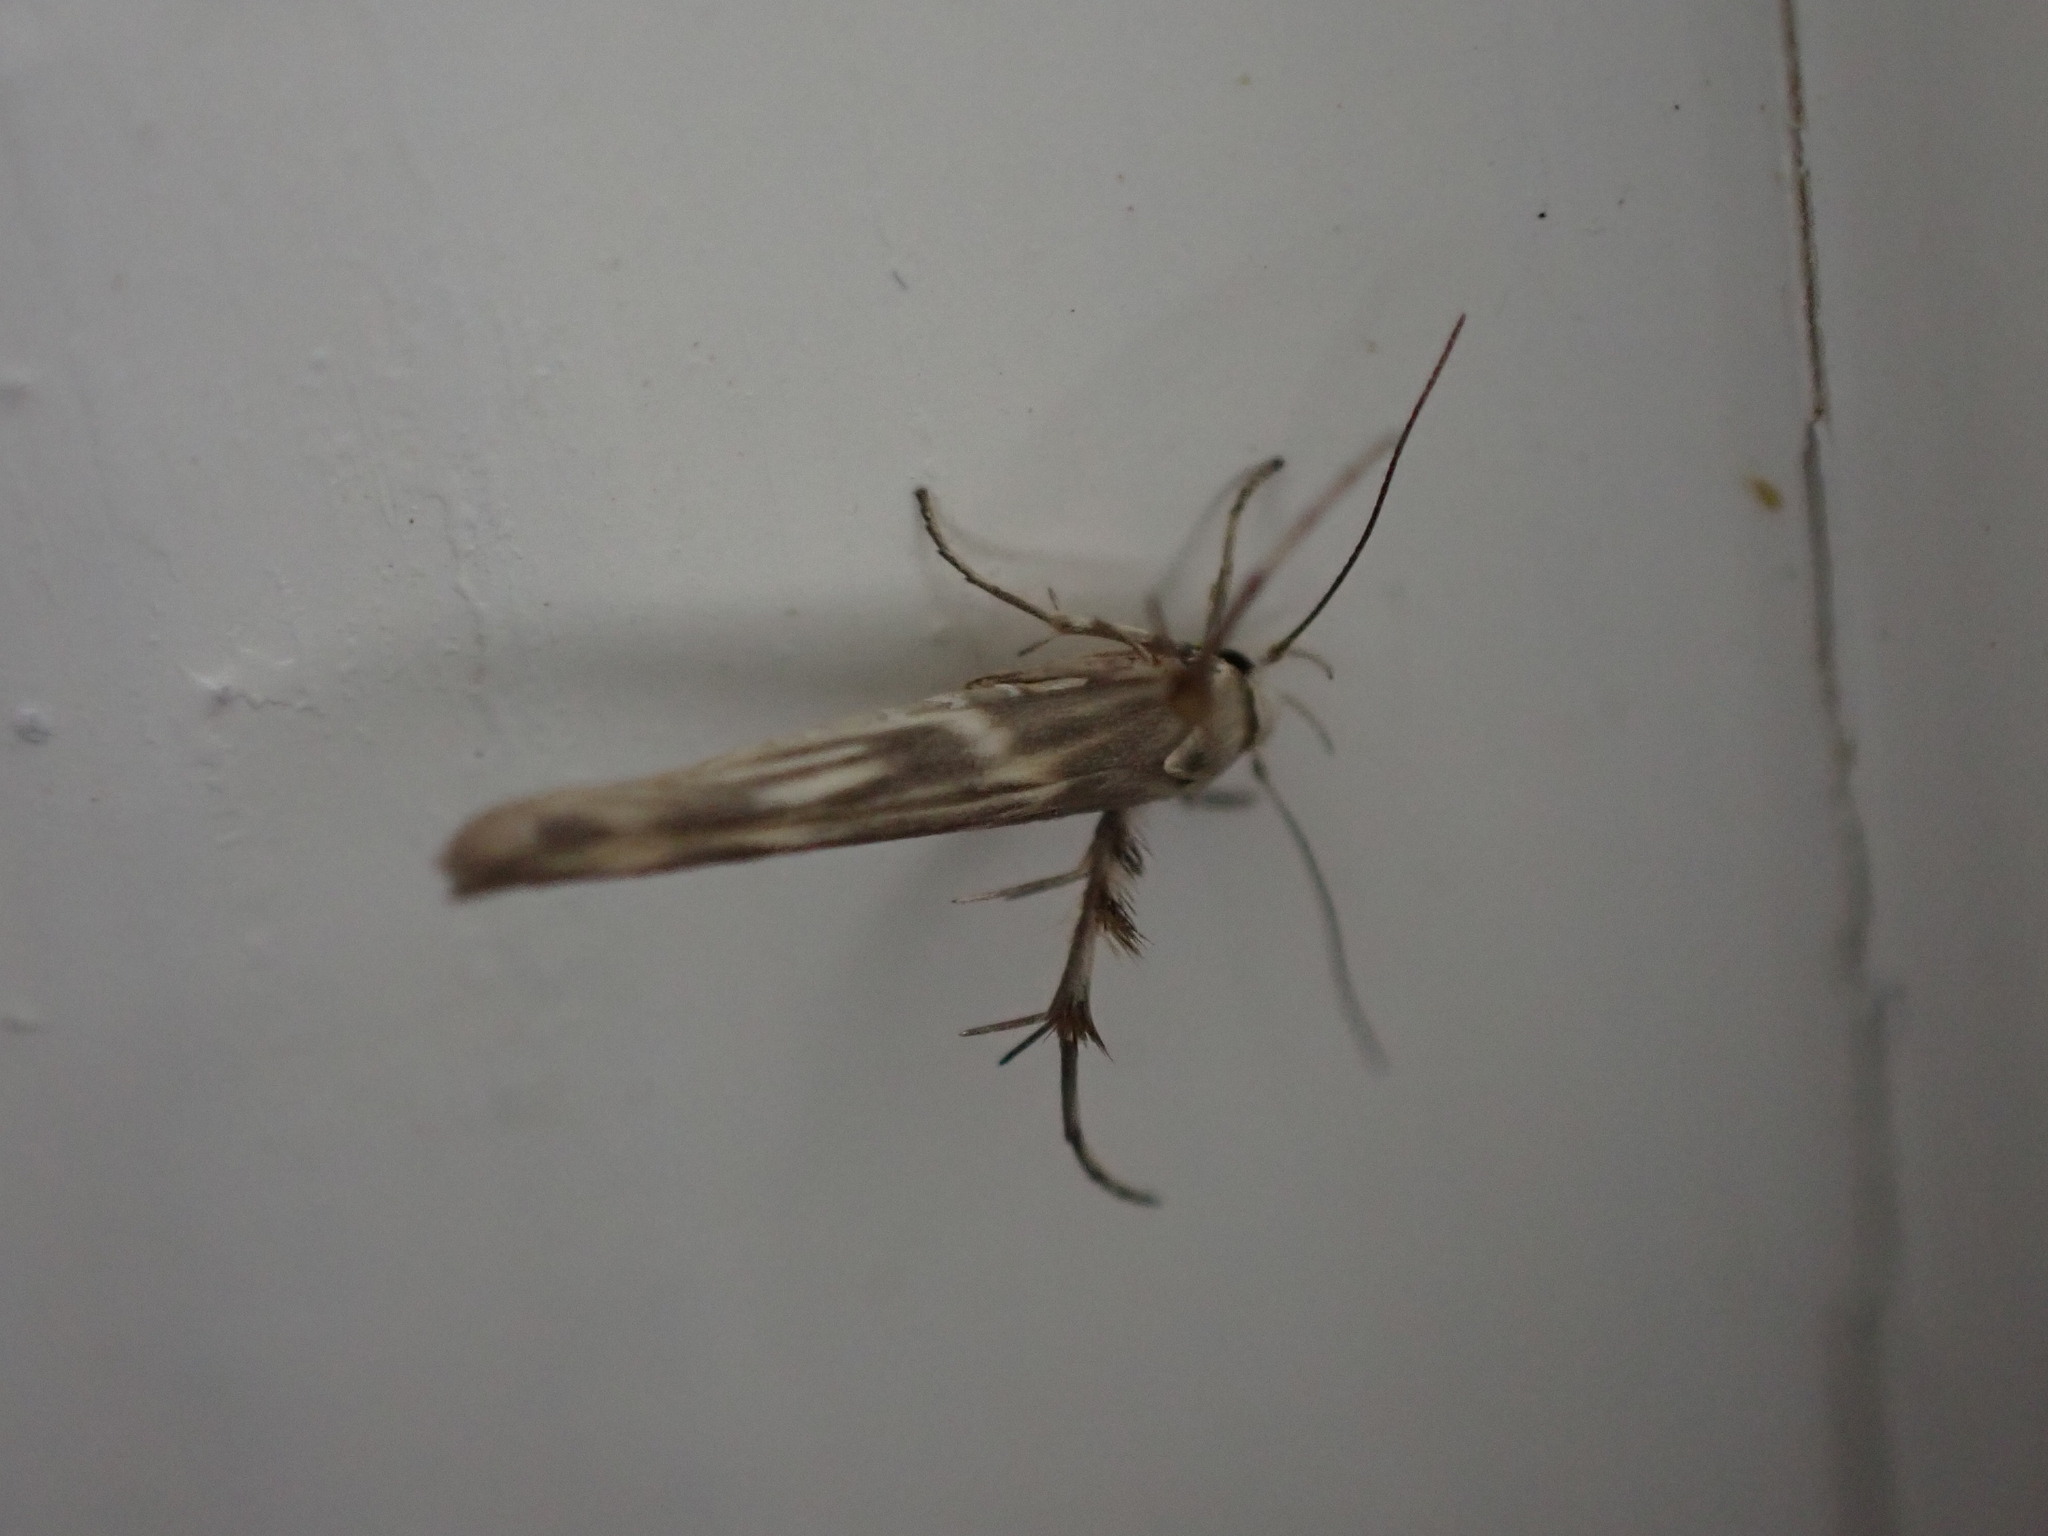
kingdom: Animalia
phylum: Arthropoda
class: Insecta
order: Lepidoptera
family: Gelechiidae
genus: Palumbina
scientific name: Palumbina guerinii
